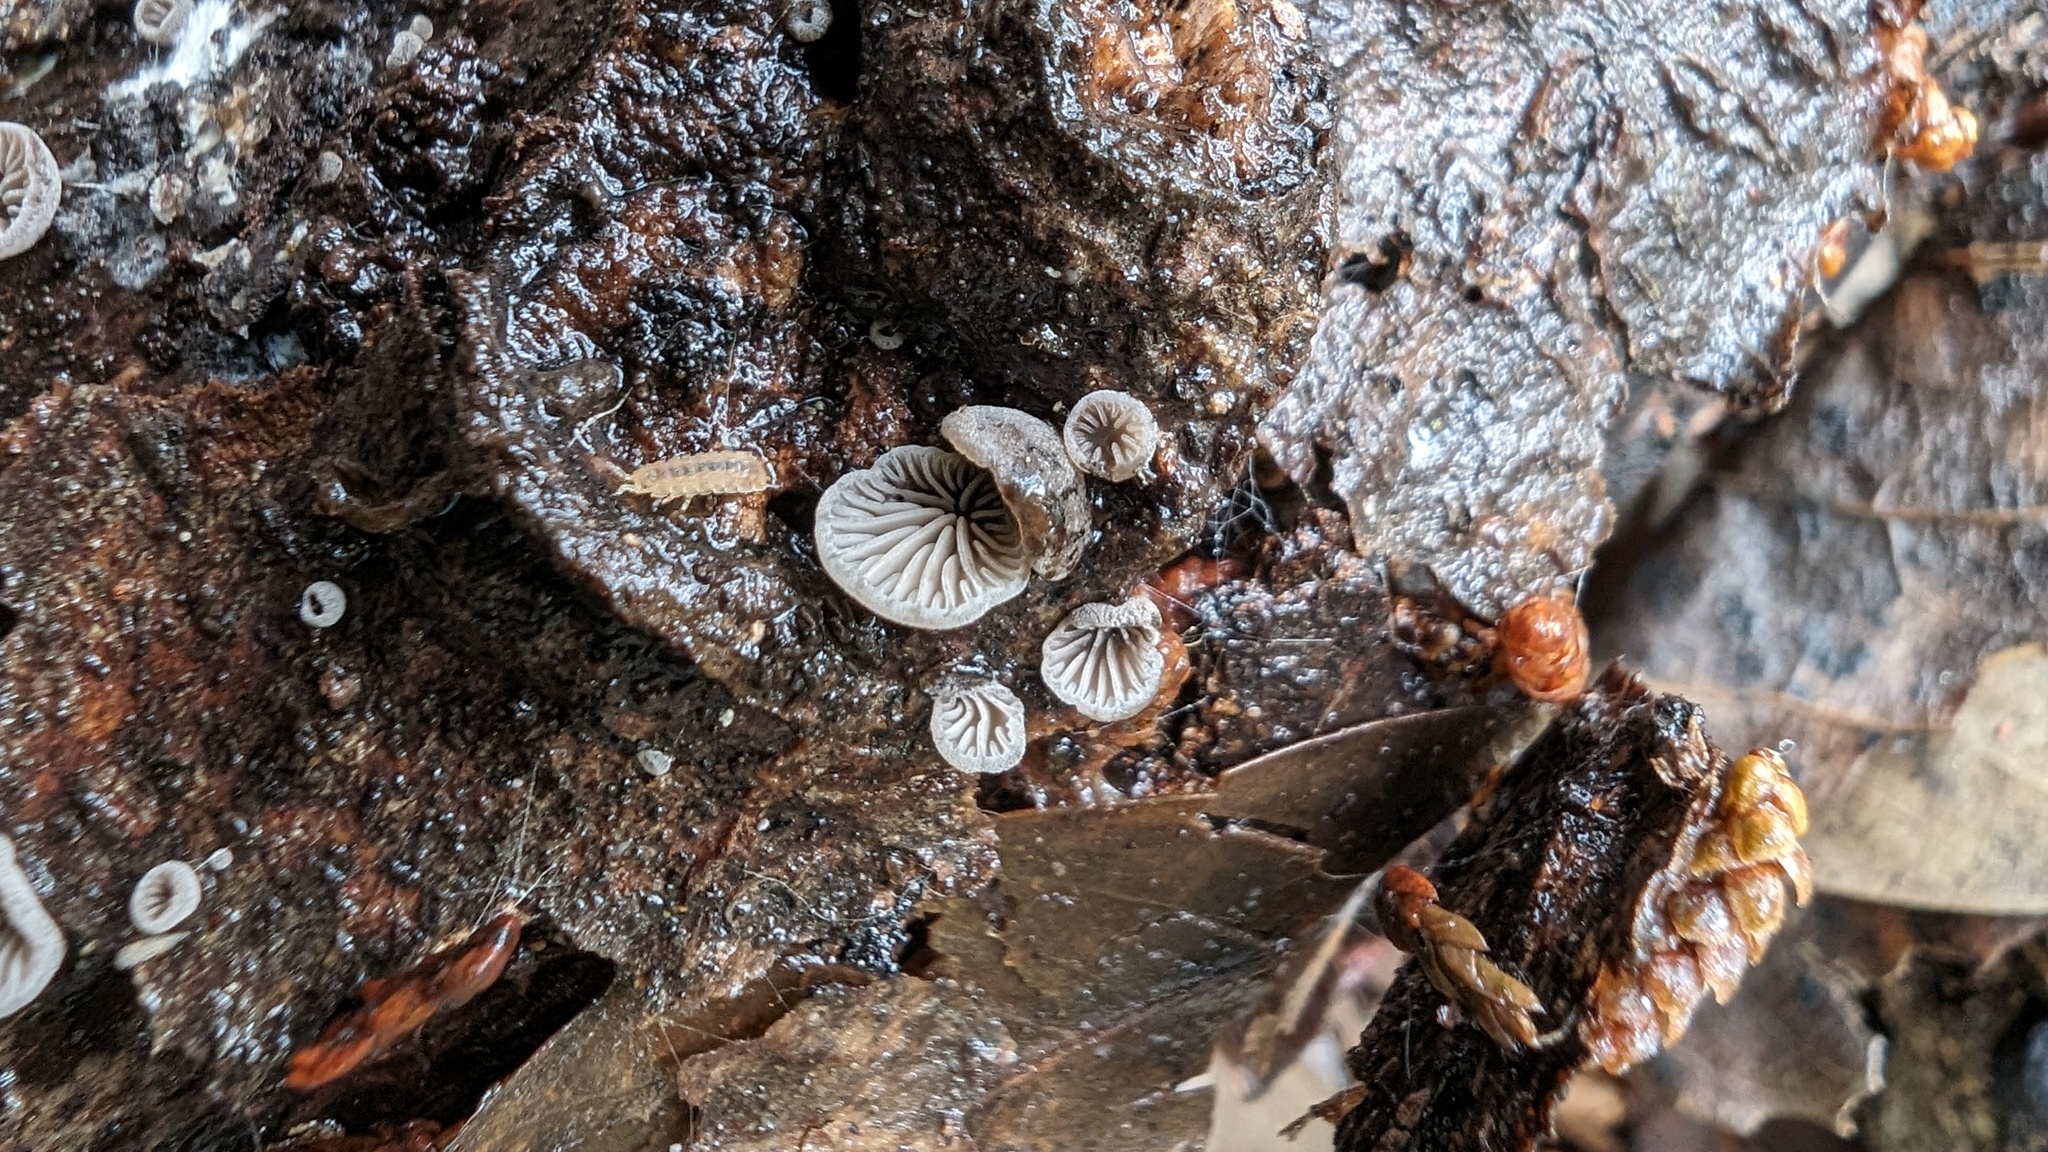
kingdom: Fungi
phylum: Basidiomycota
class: Agaricomycetes
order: Agaricales
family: Pleurotaceae
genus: Resupinatus
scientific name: Resupinatus applicatus
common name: Smoked oysterling
